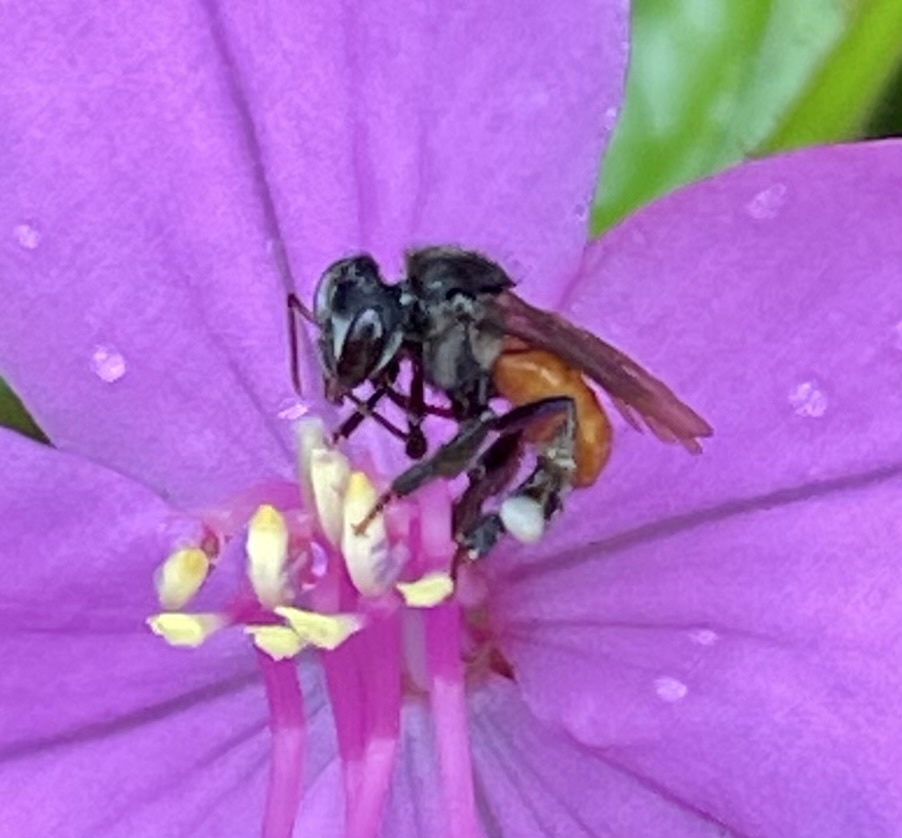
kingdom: Animalia
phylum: Arthropoda
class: Insecta
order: Hymenoptera
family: Apidae
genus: Trigona
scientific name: Trigona fulviventris
